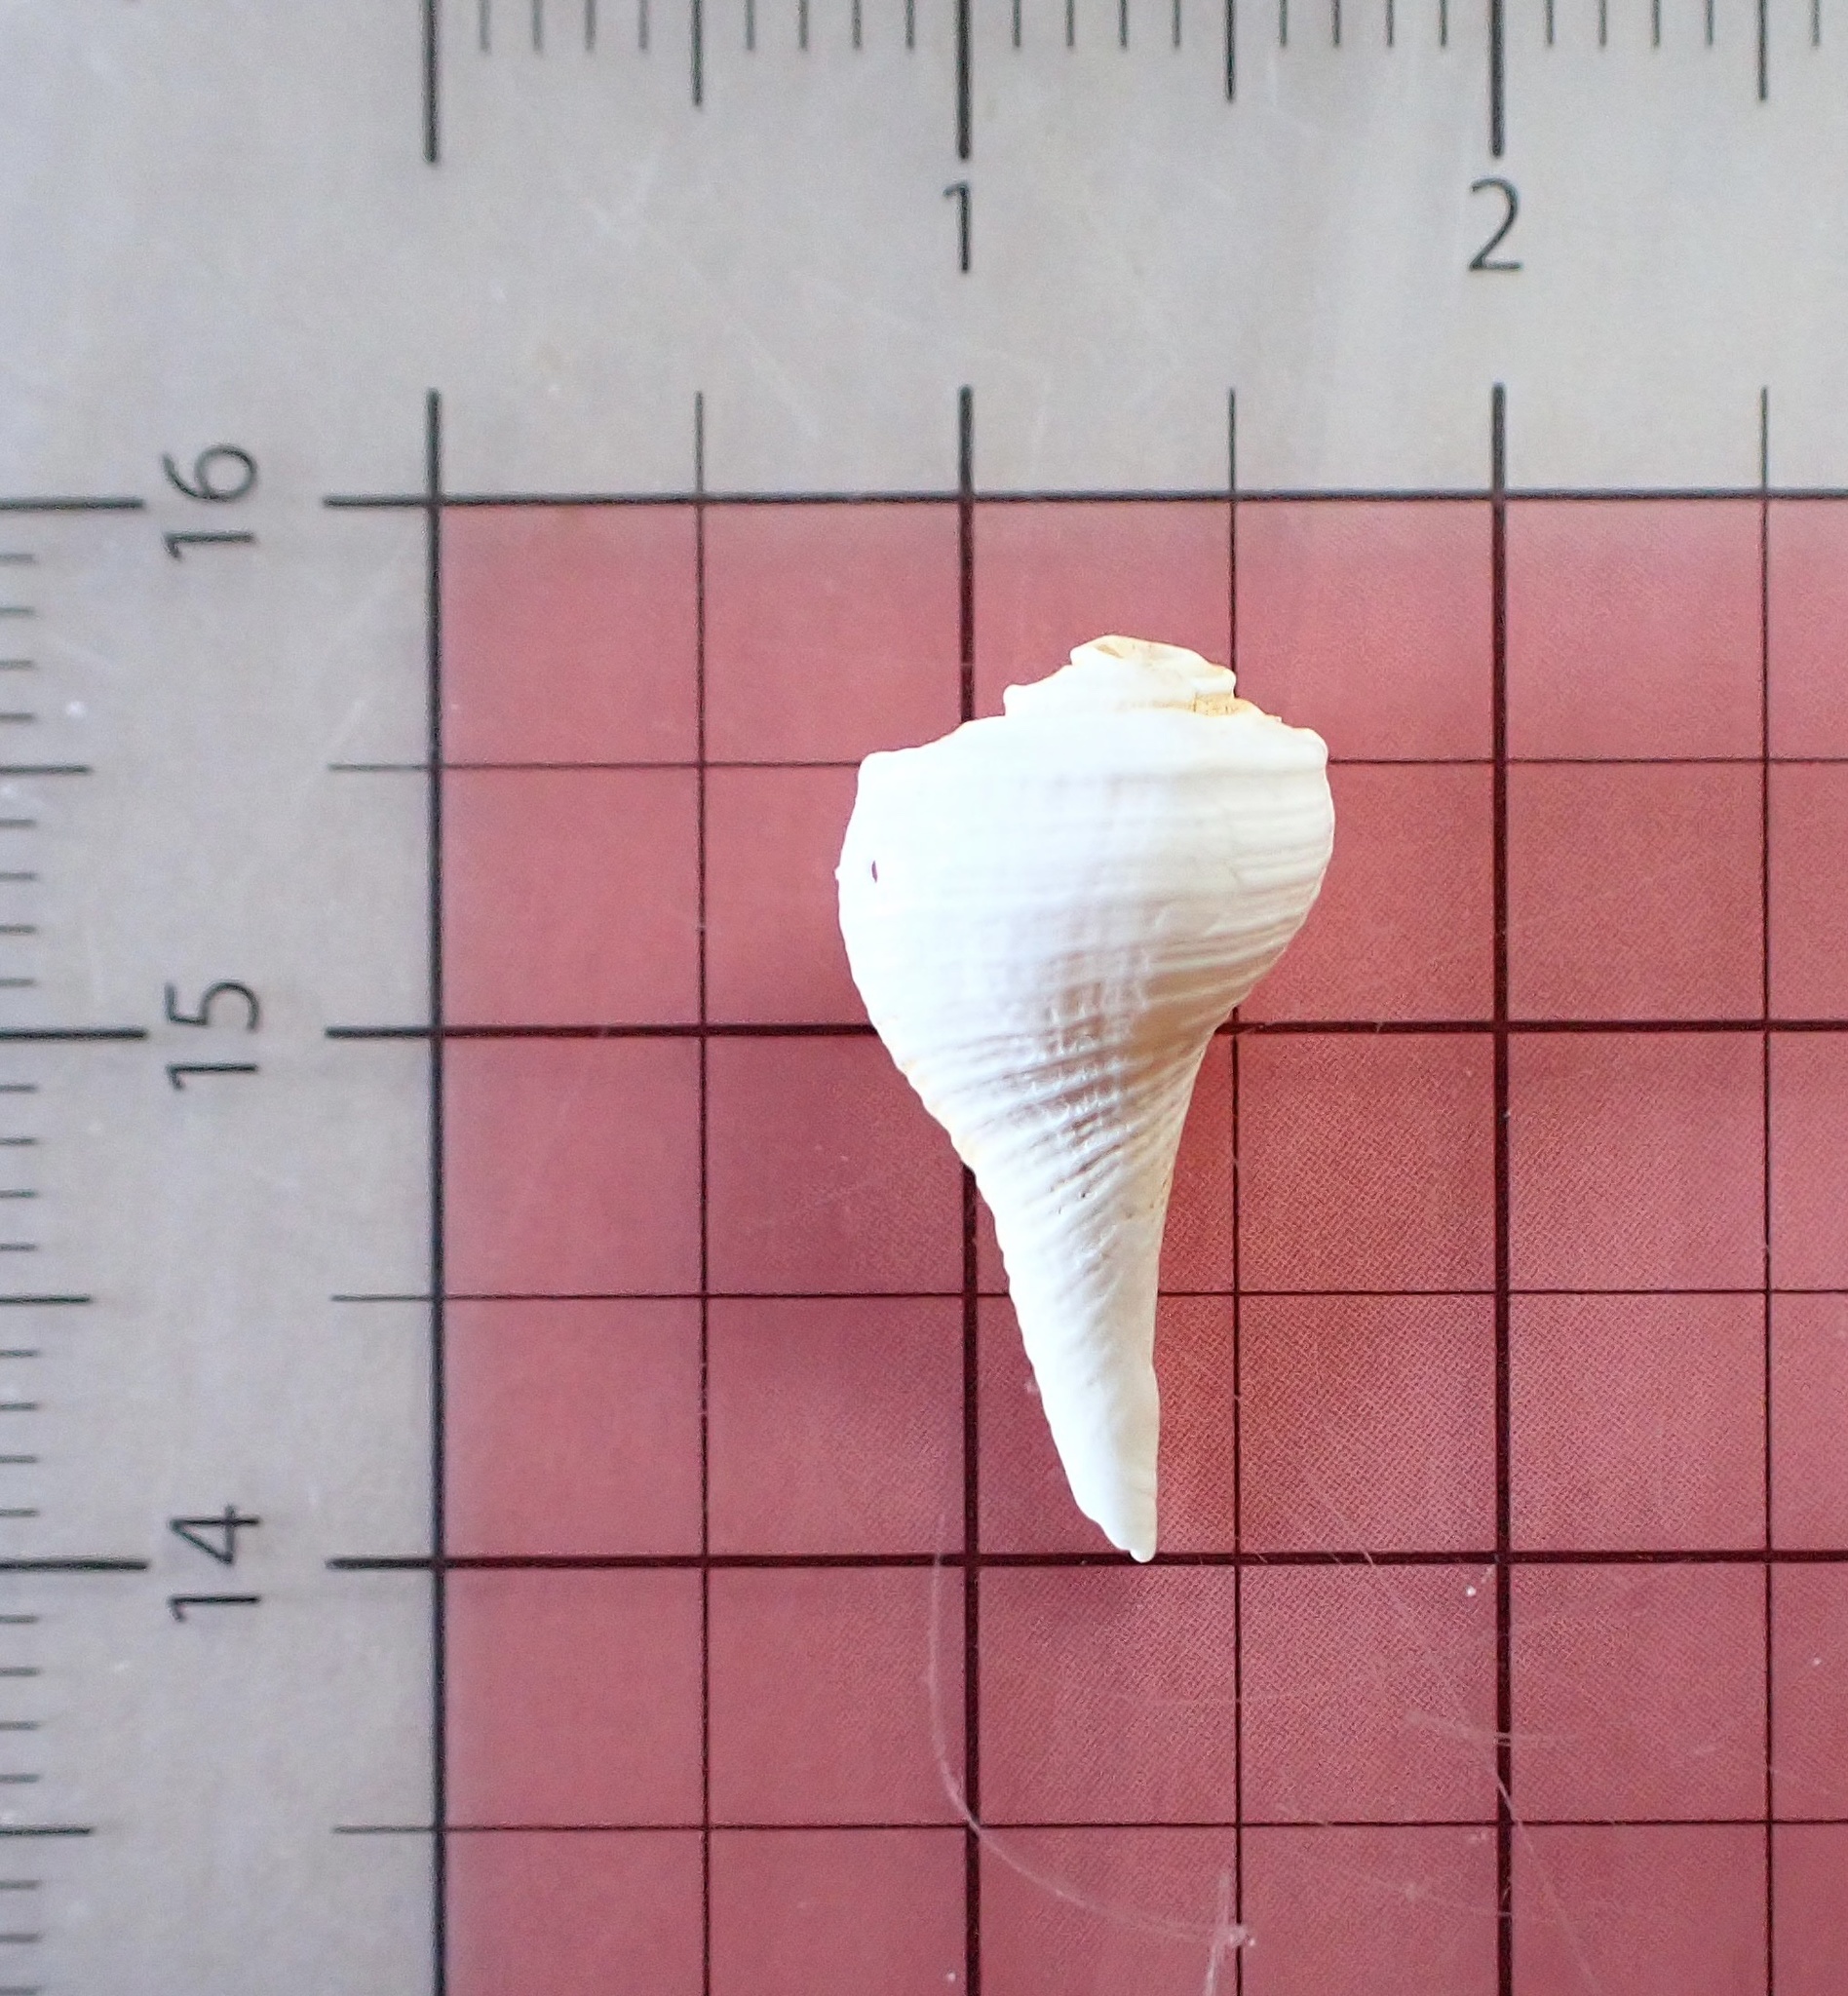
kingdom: Animalia
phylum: Mollusca
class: Gastropoda
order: Neogastropoda
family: Busyconidae
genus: Fulguropsis
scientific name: Fulguropsis pyruloides
